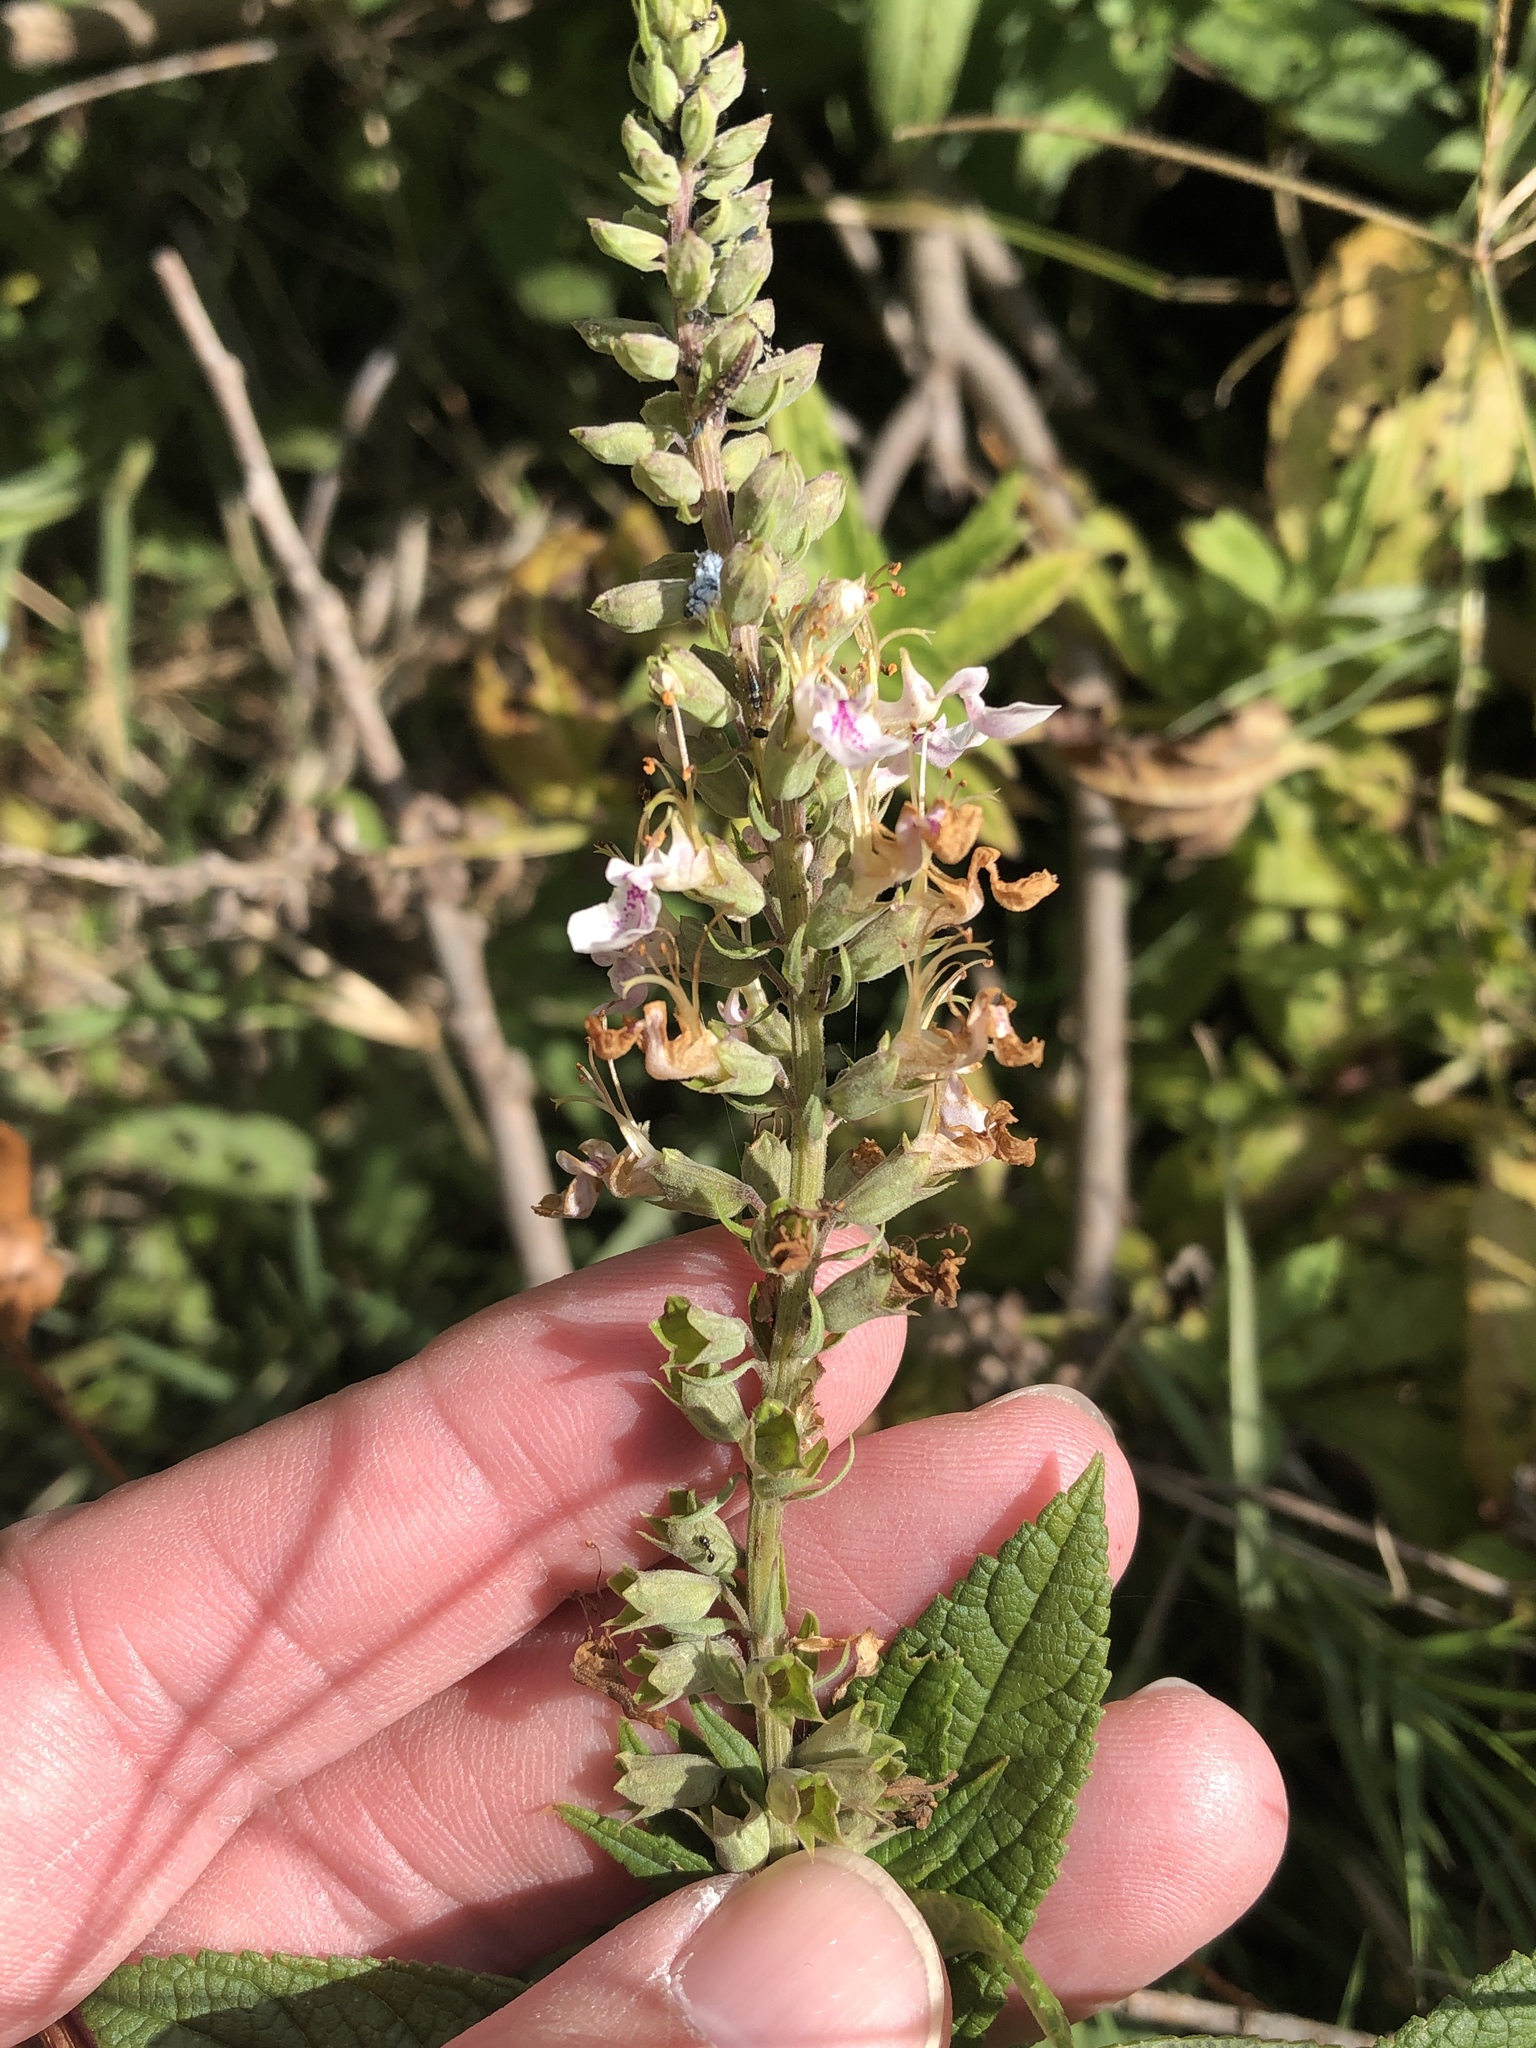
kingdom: Plantae
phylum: Tracheophyta
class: Magnoliopsida
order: Lamiales
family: Lamiaceae
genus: Teucrium
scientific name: Teucrium canadense
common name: American germander
